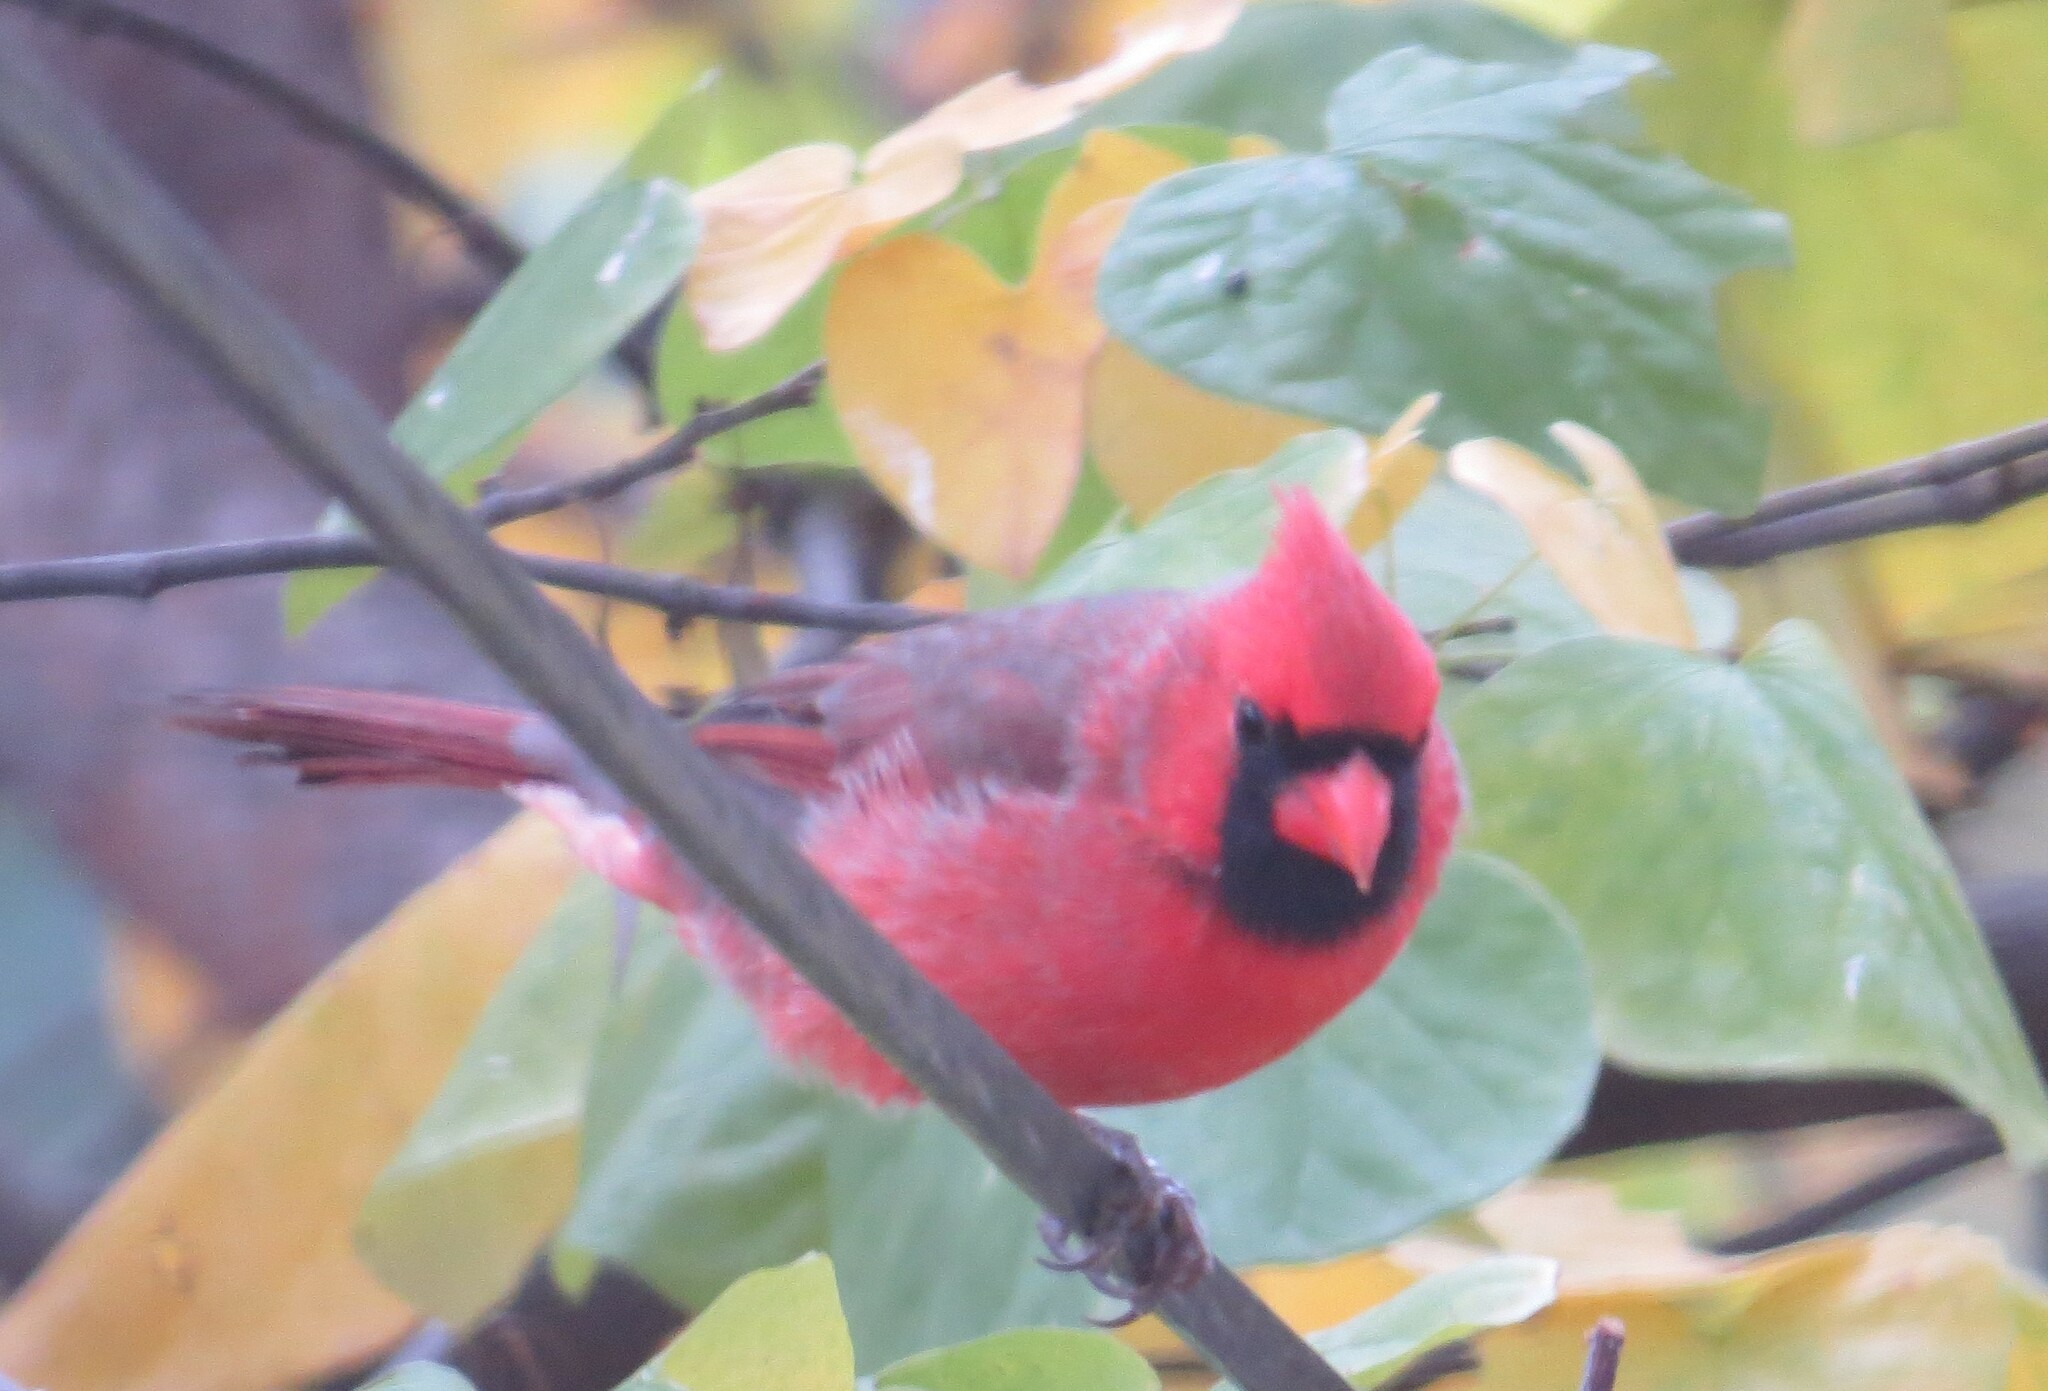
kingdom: Animalia
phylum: Chordata
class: Aves
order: Passeriformes
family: Cardinalidae
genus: Cardinalis
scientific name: Cardinalis cardinalis
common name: Northern cardinal
